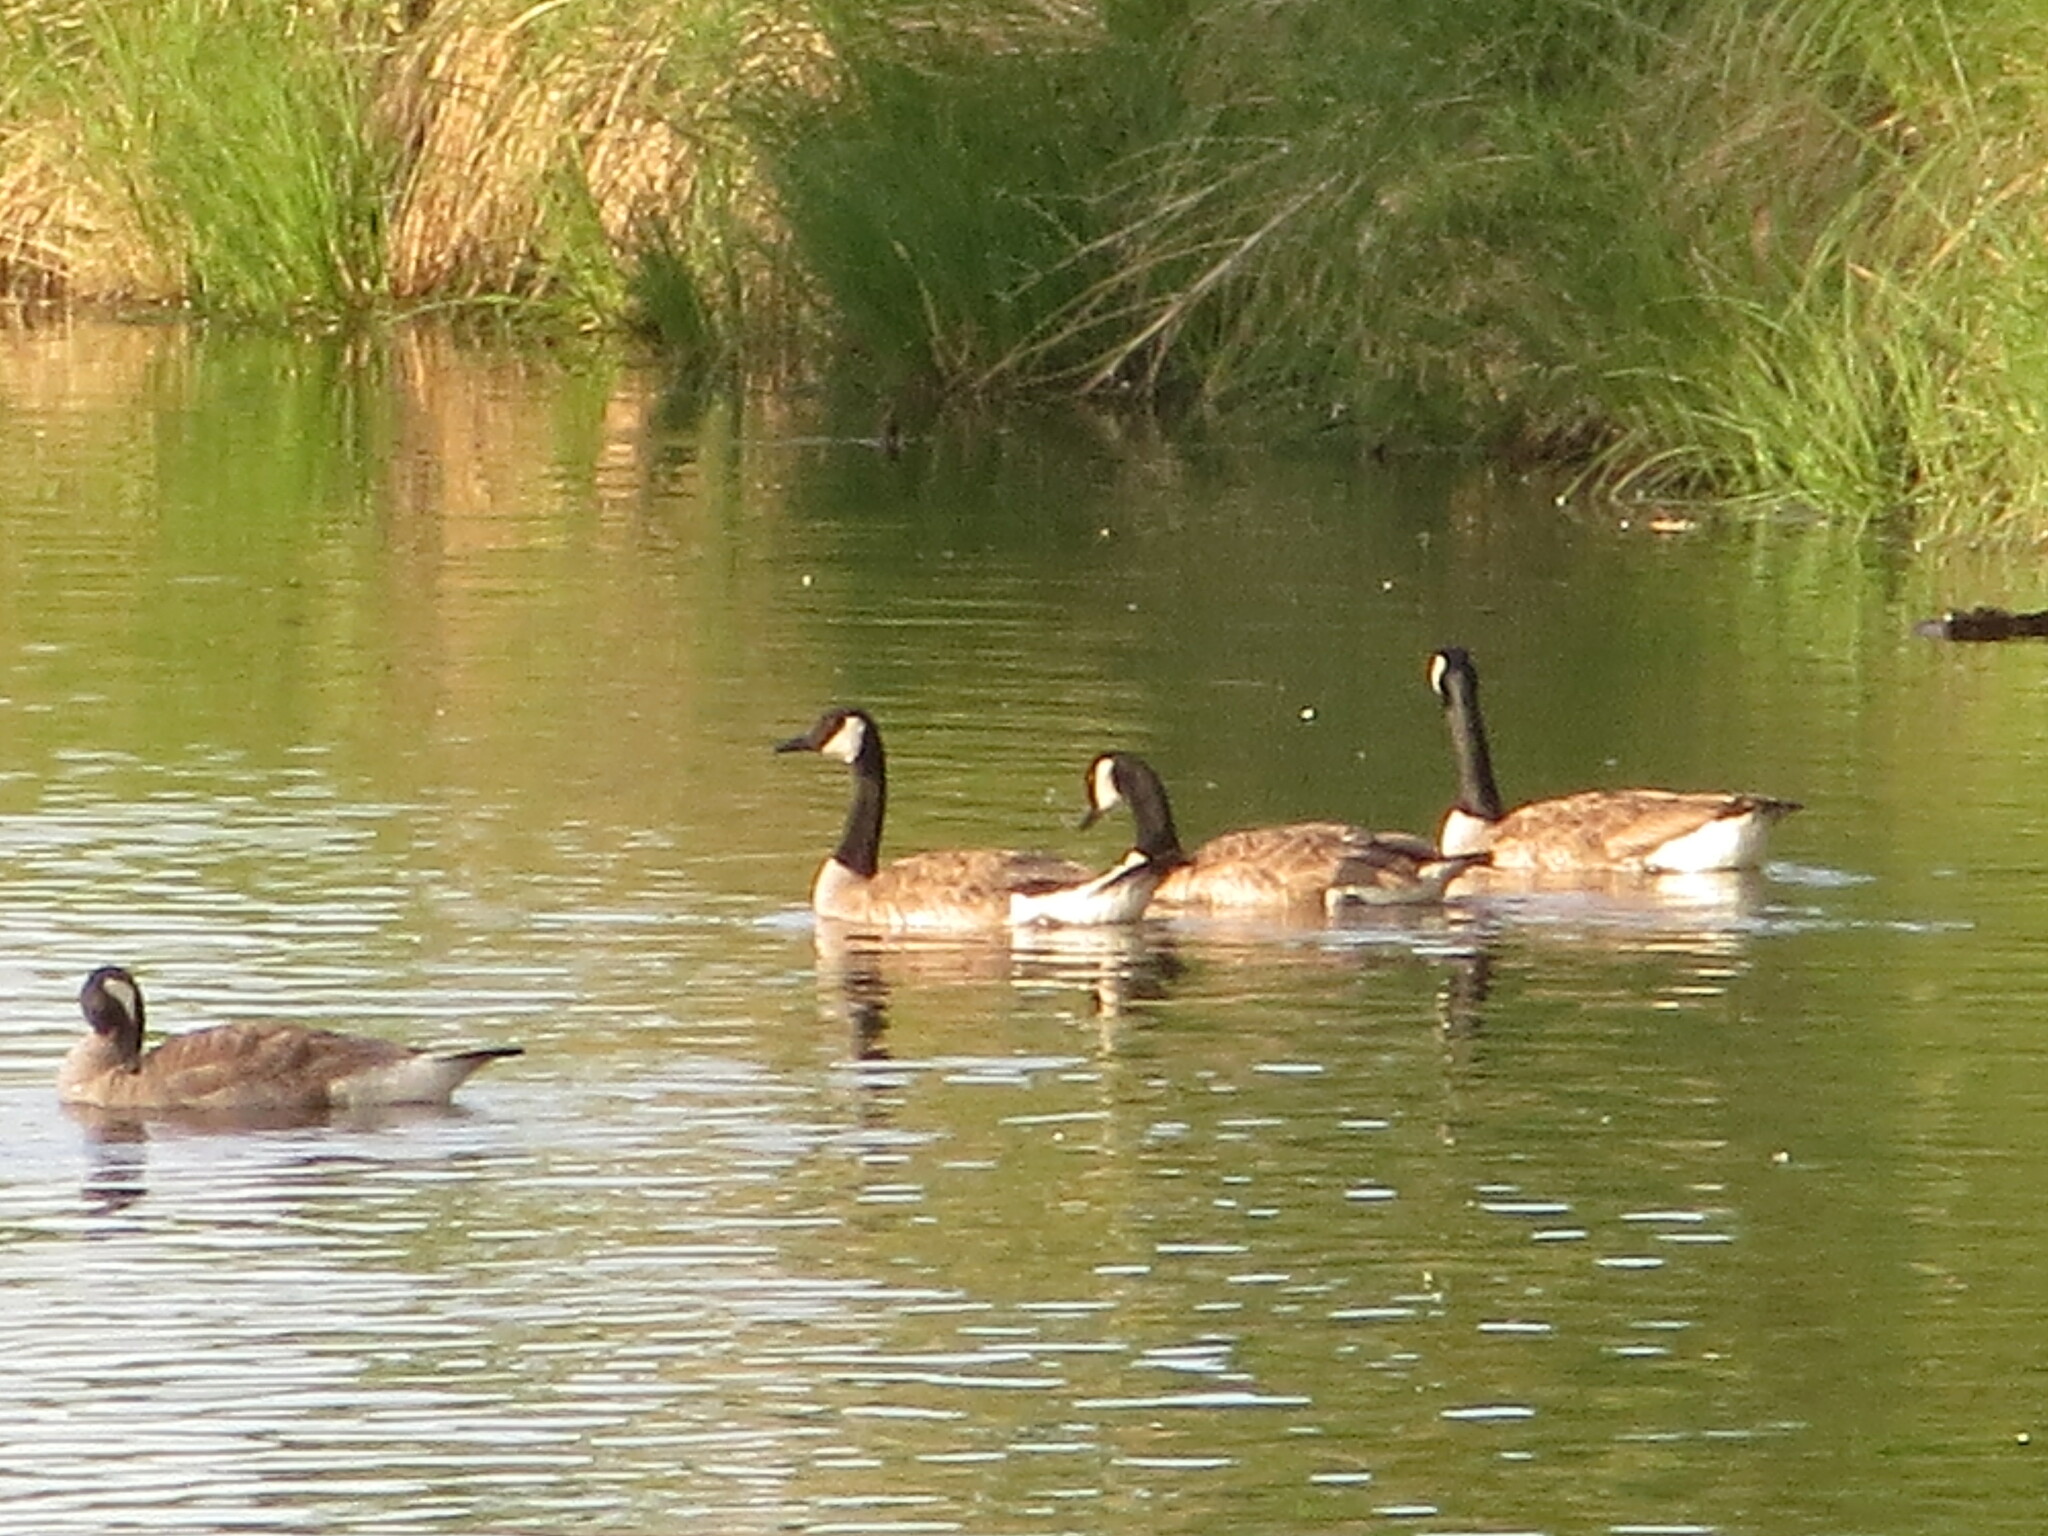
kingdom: Animalia
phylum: Chordata
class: Aves
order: Anseriformes
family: Anatidae
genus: Branta
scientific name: Branta canadensis
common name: Canada goose
